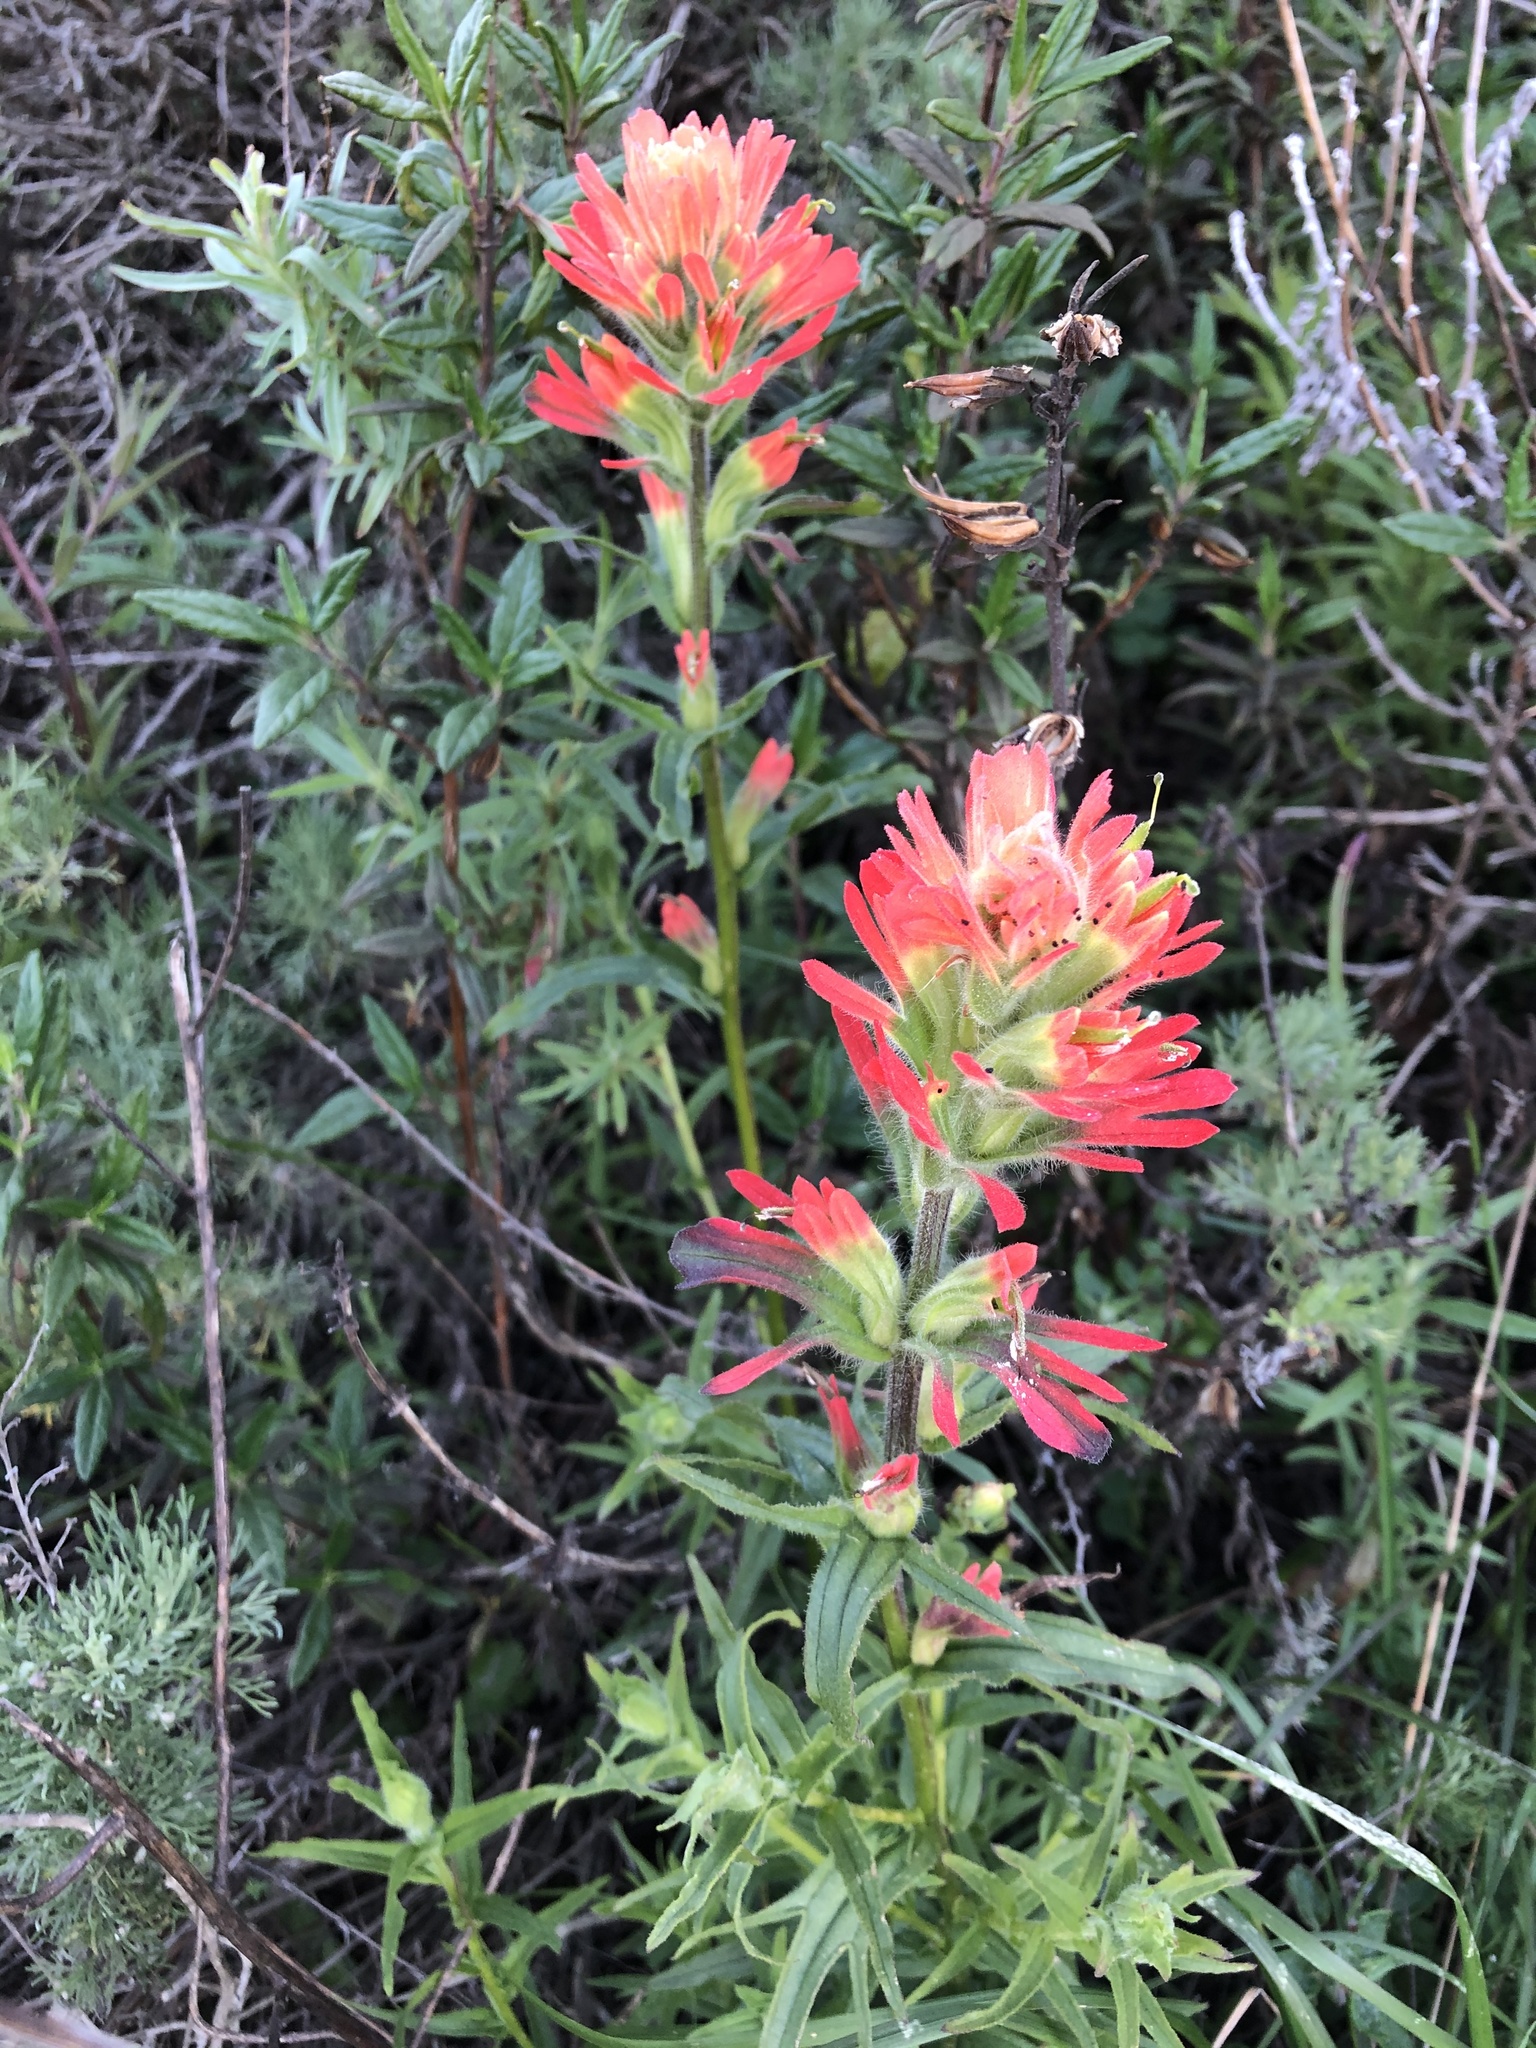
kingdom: Plantae
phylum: Tracheophyta
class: Magnoliopsida
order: Lamiales
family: Orobanchaceae
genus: Castilleja
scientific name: Castilleja affinis
